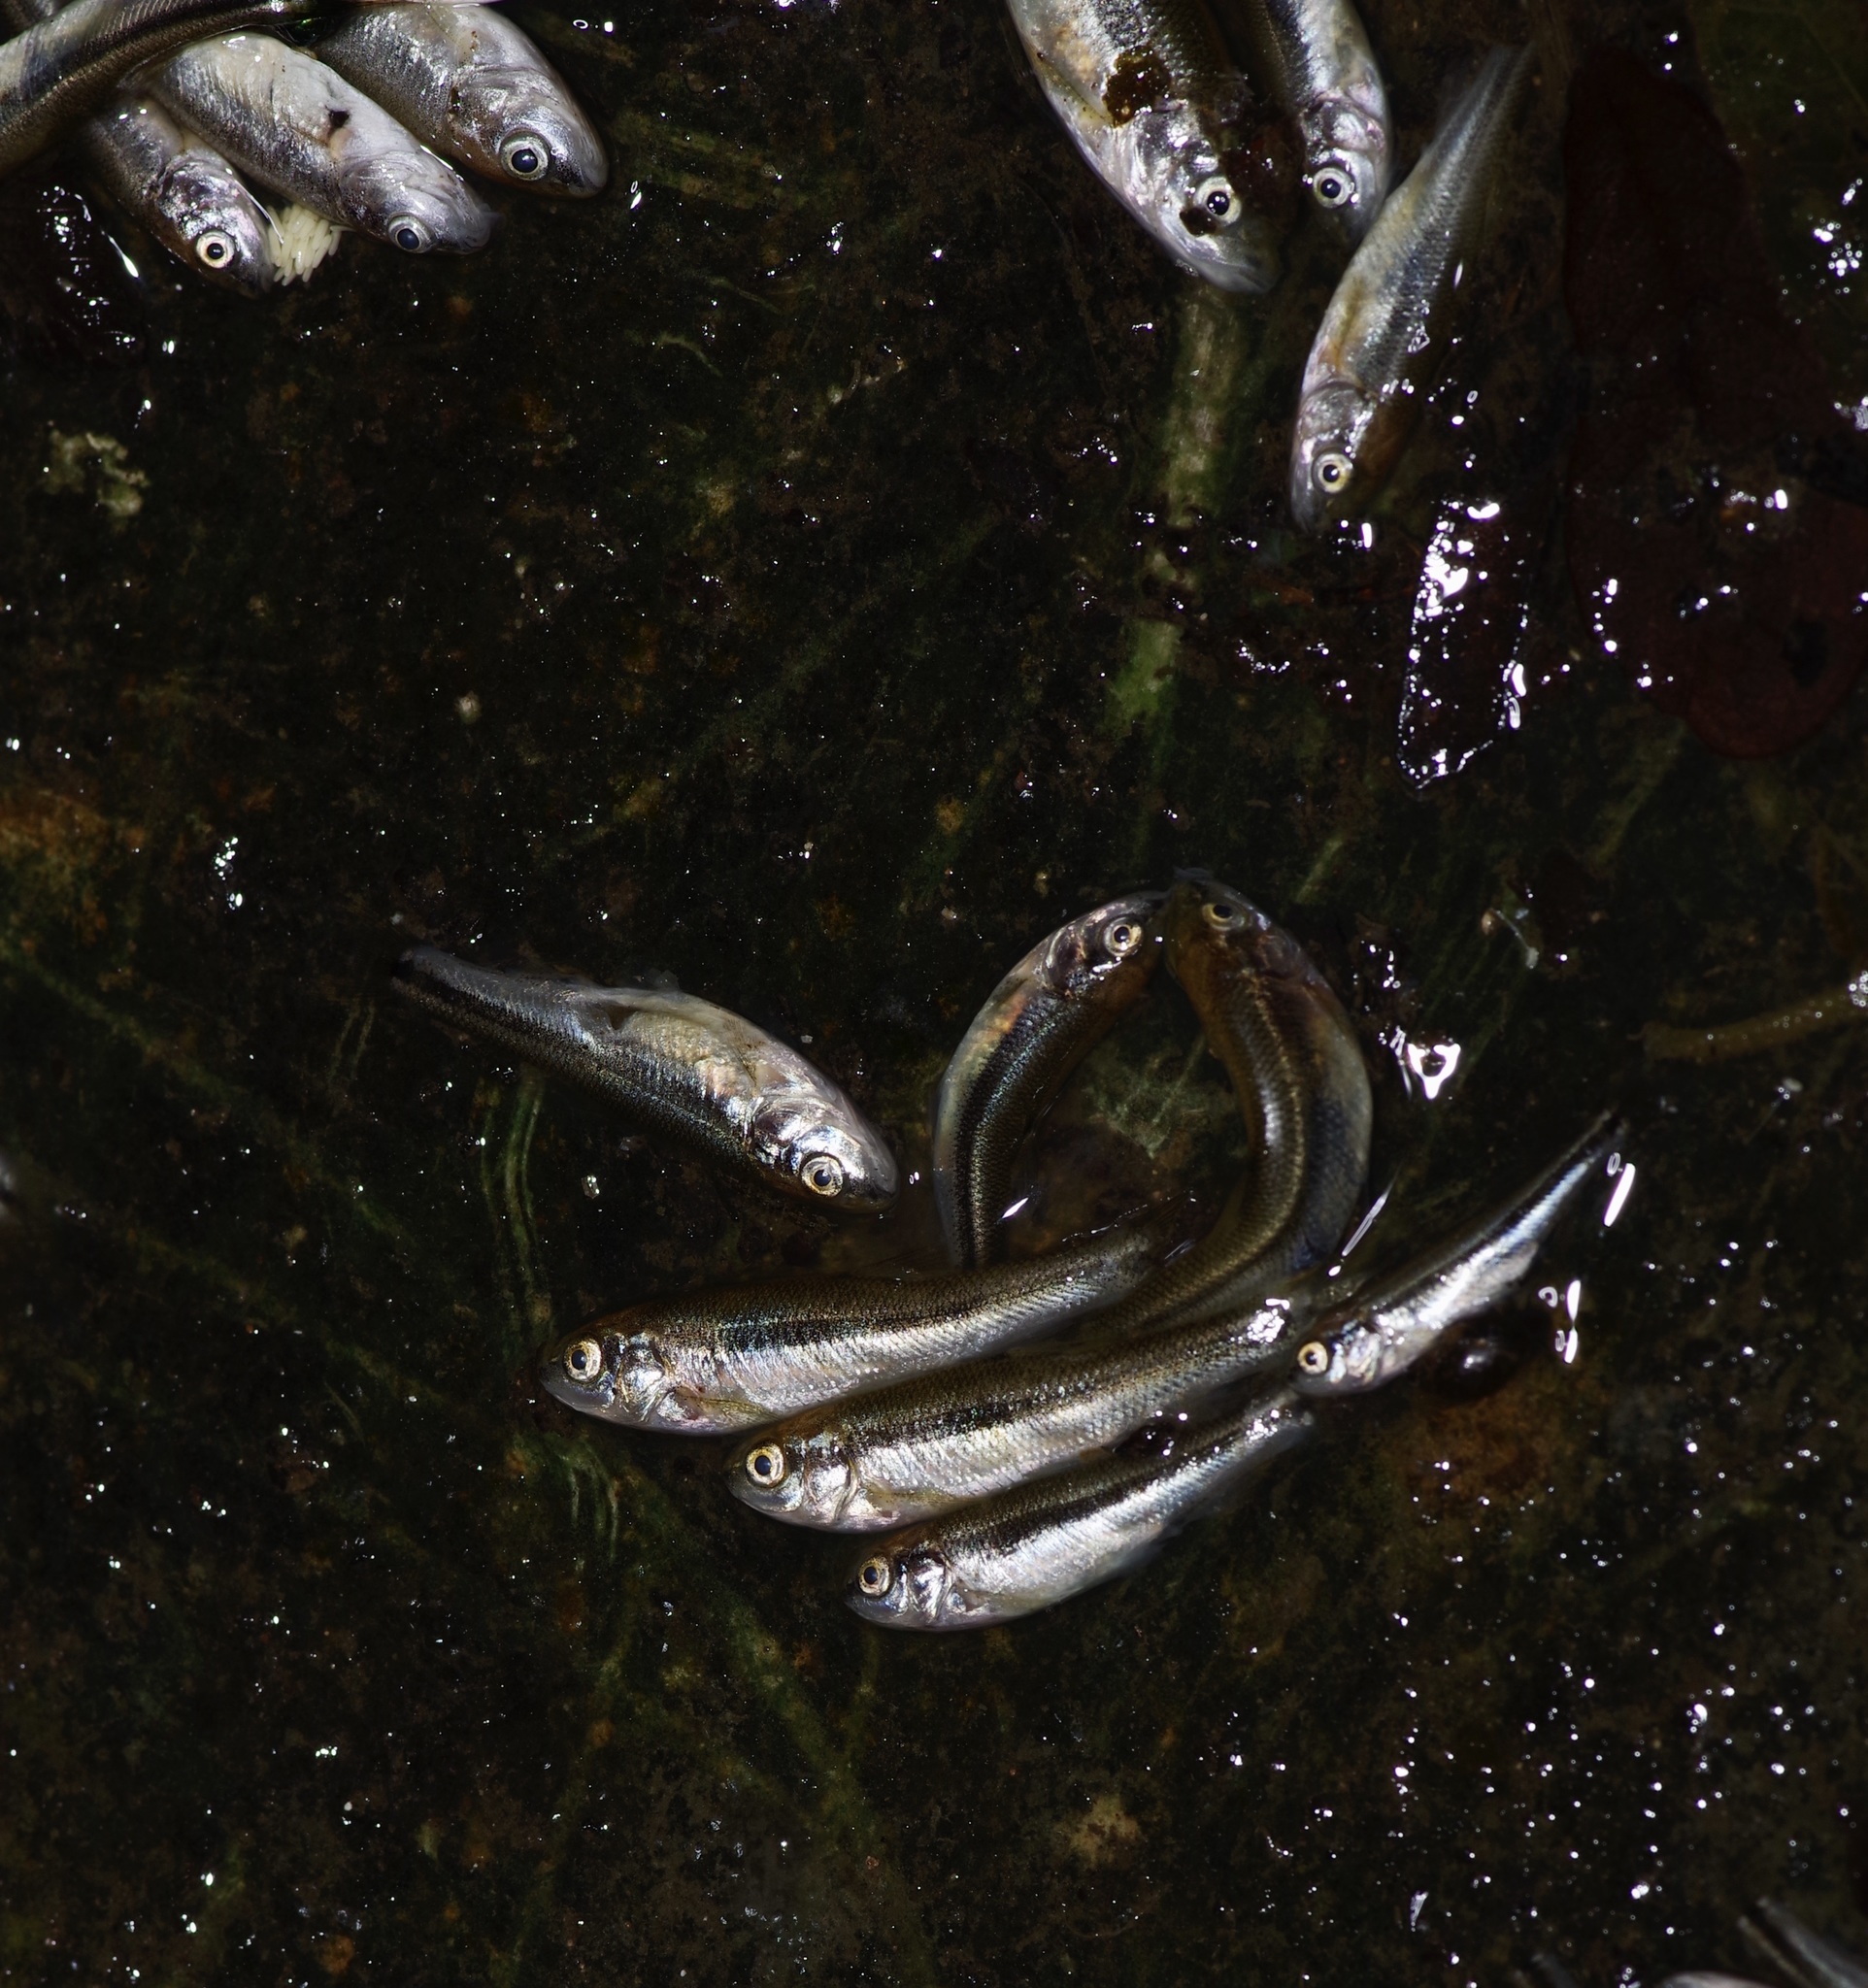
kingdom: Animalia
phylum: Chordata
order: Cyprinodontiformes
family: Poeciliidae
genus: Gambusia
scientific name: Gambusia affinis
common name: Mosquitofish
